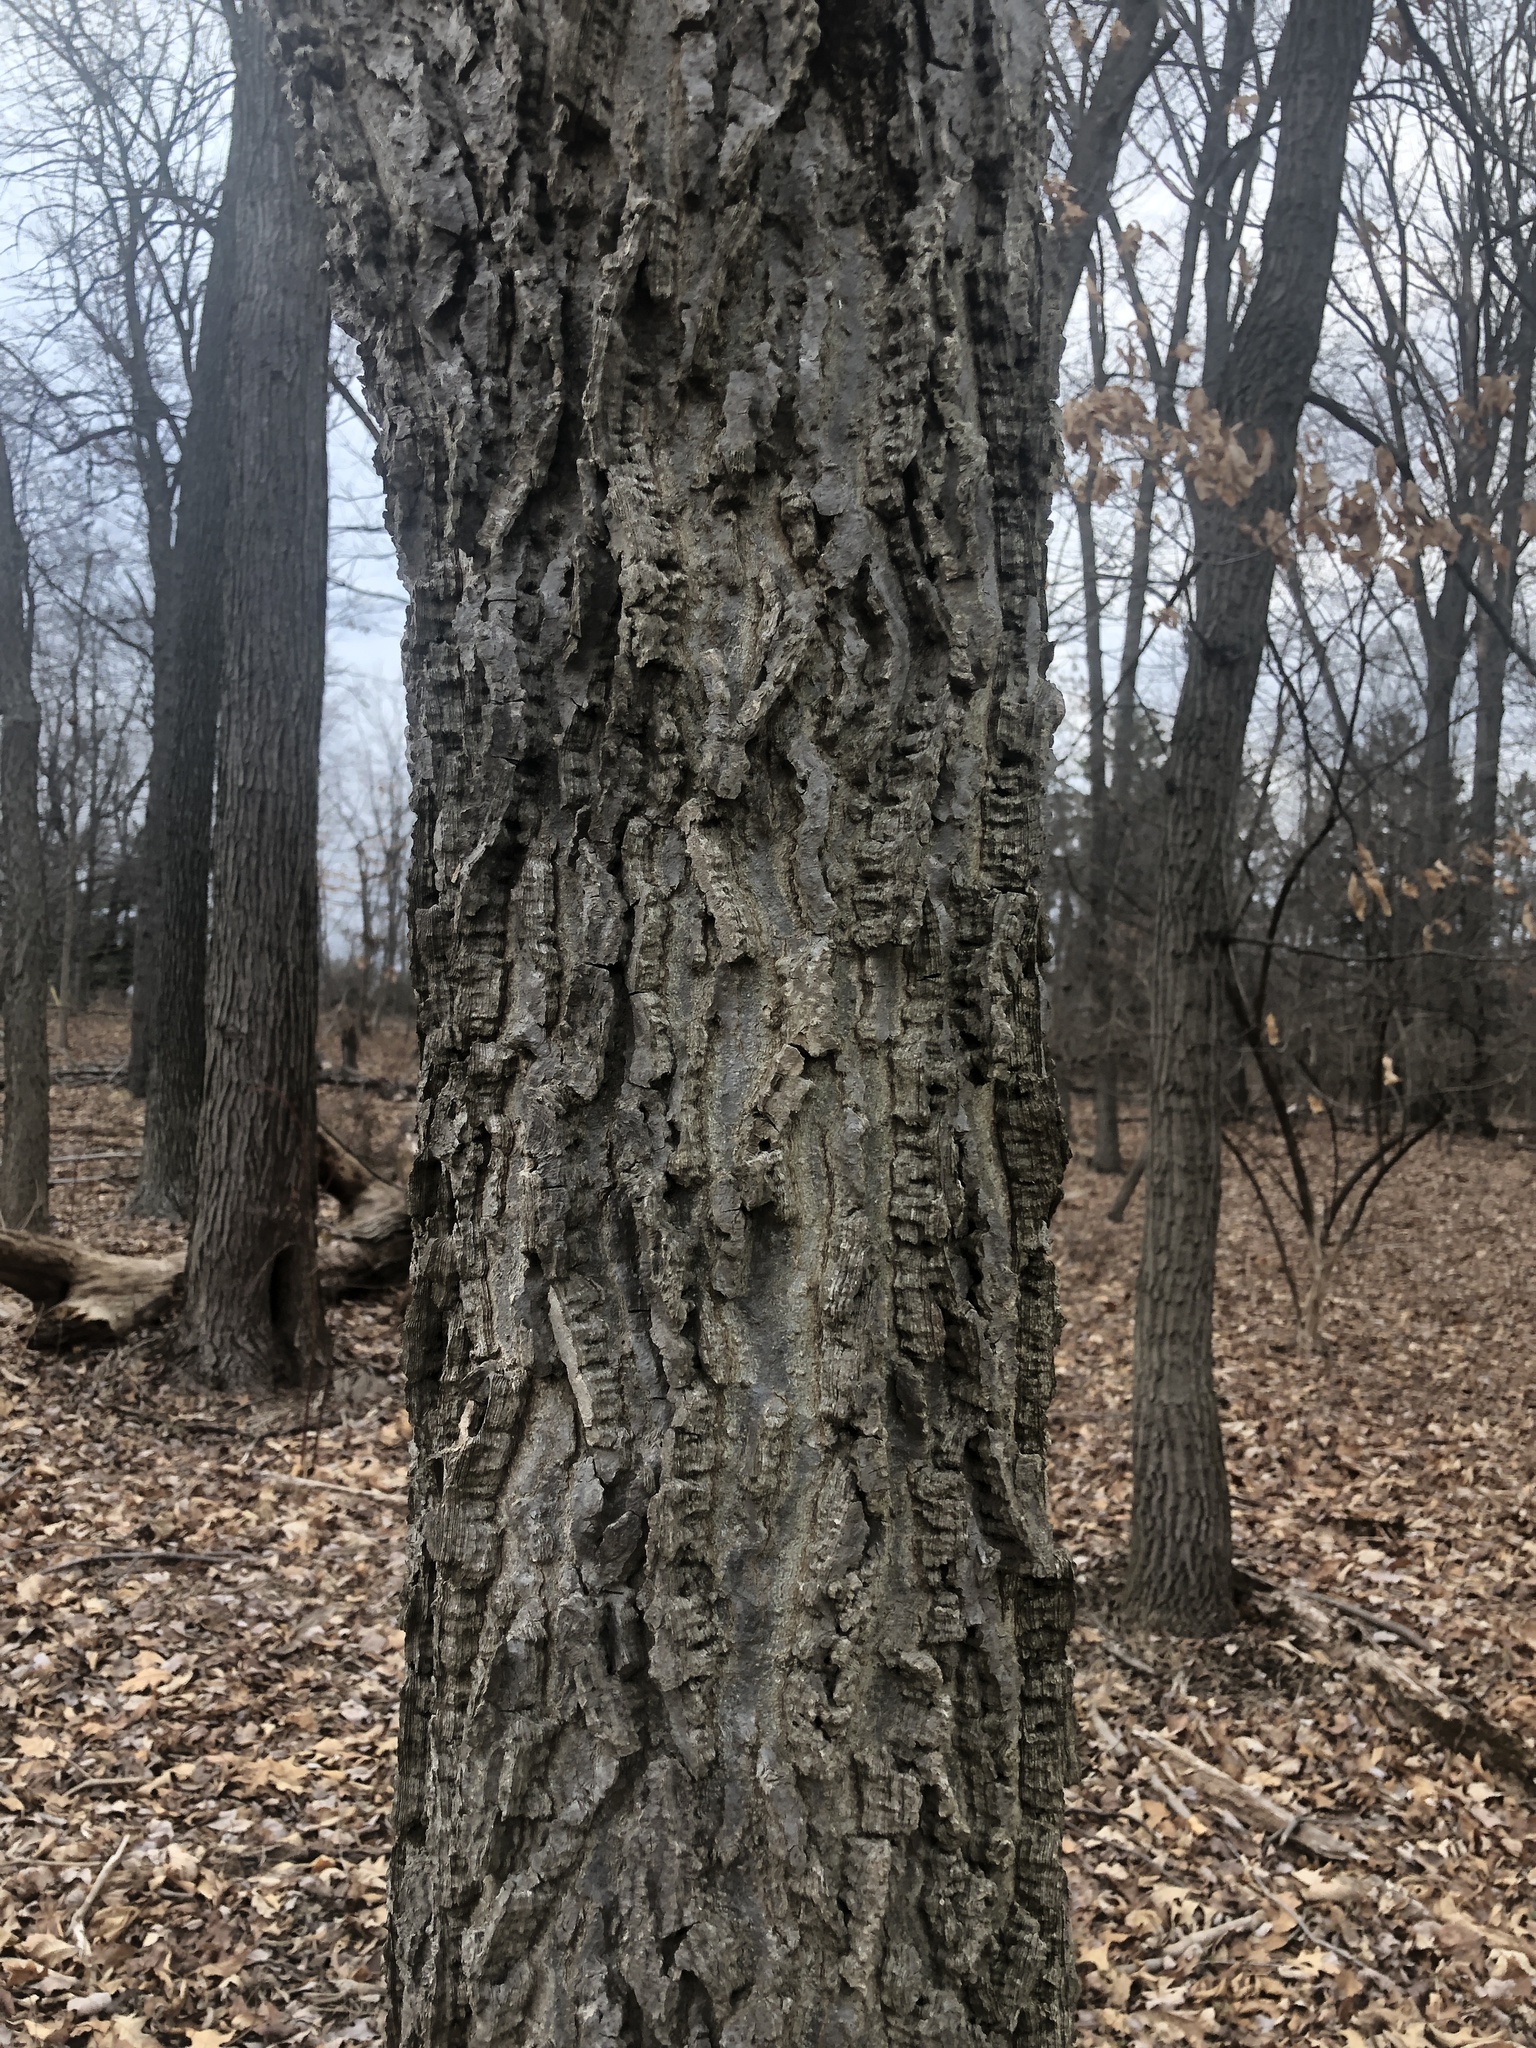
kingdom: Plantae
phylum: Tracheophyta
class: Magnoliopsida
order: Rosales
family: Cannabaceae
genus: Celtis
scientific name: Celtis occidentalis
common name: Common hackberry
